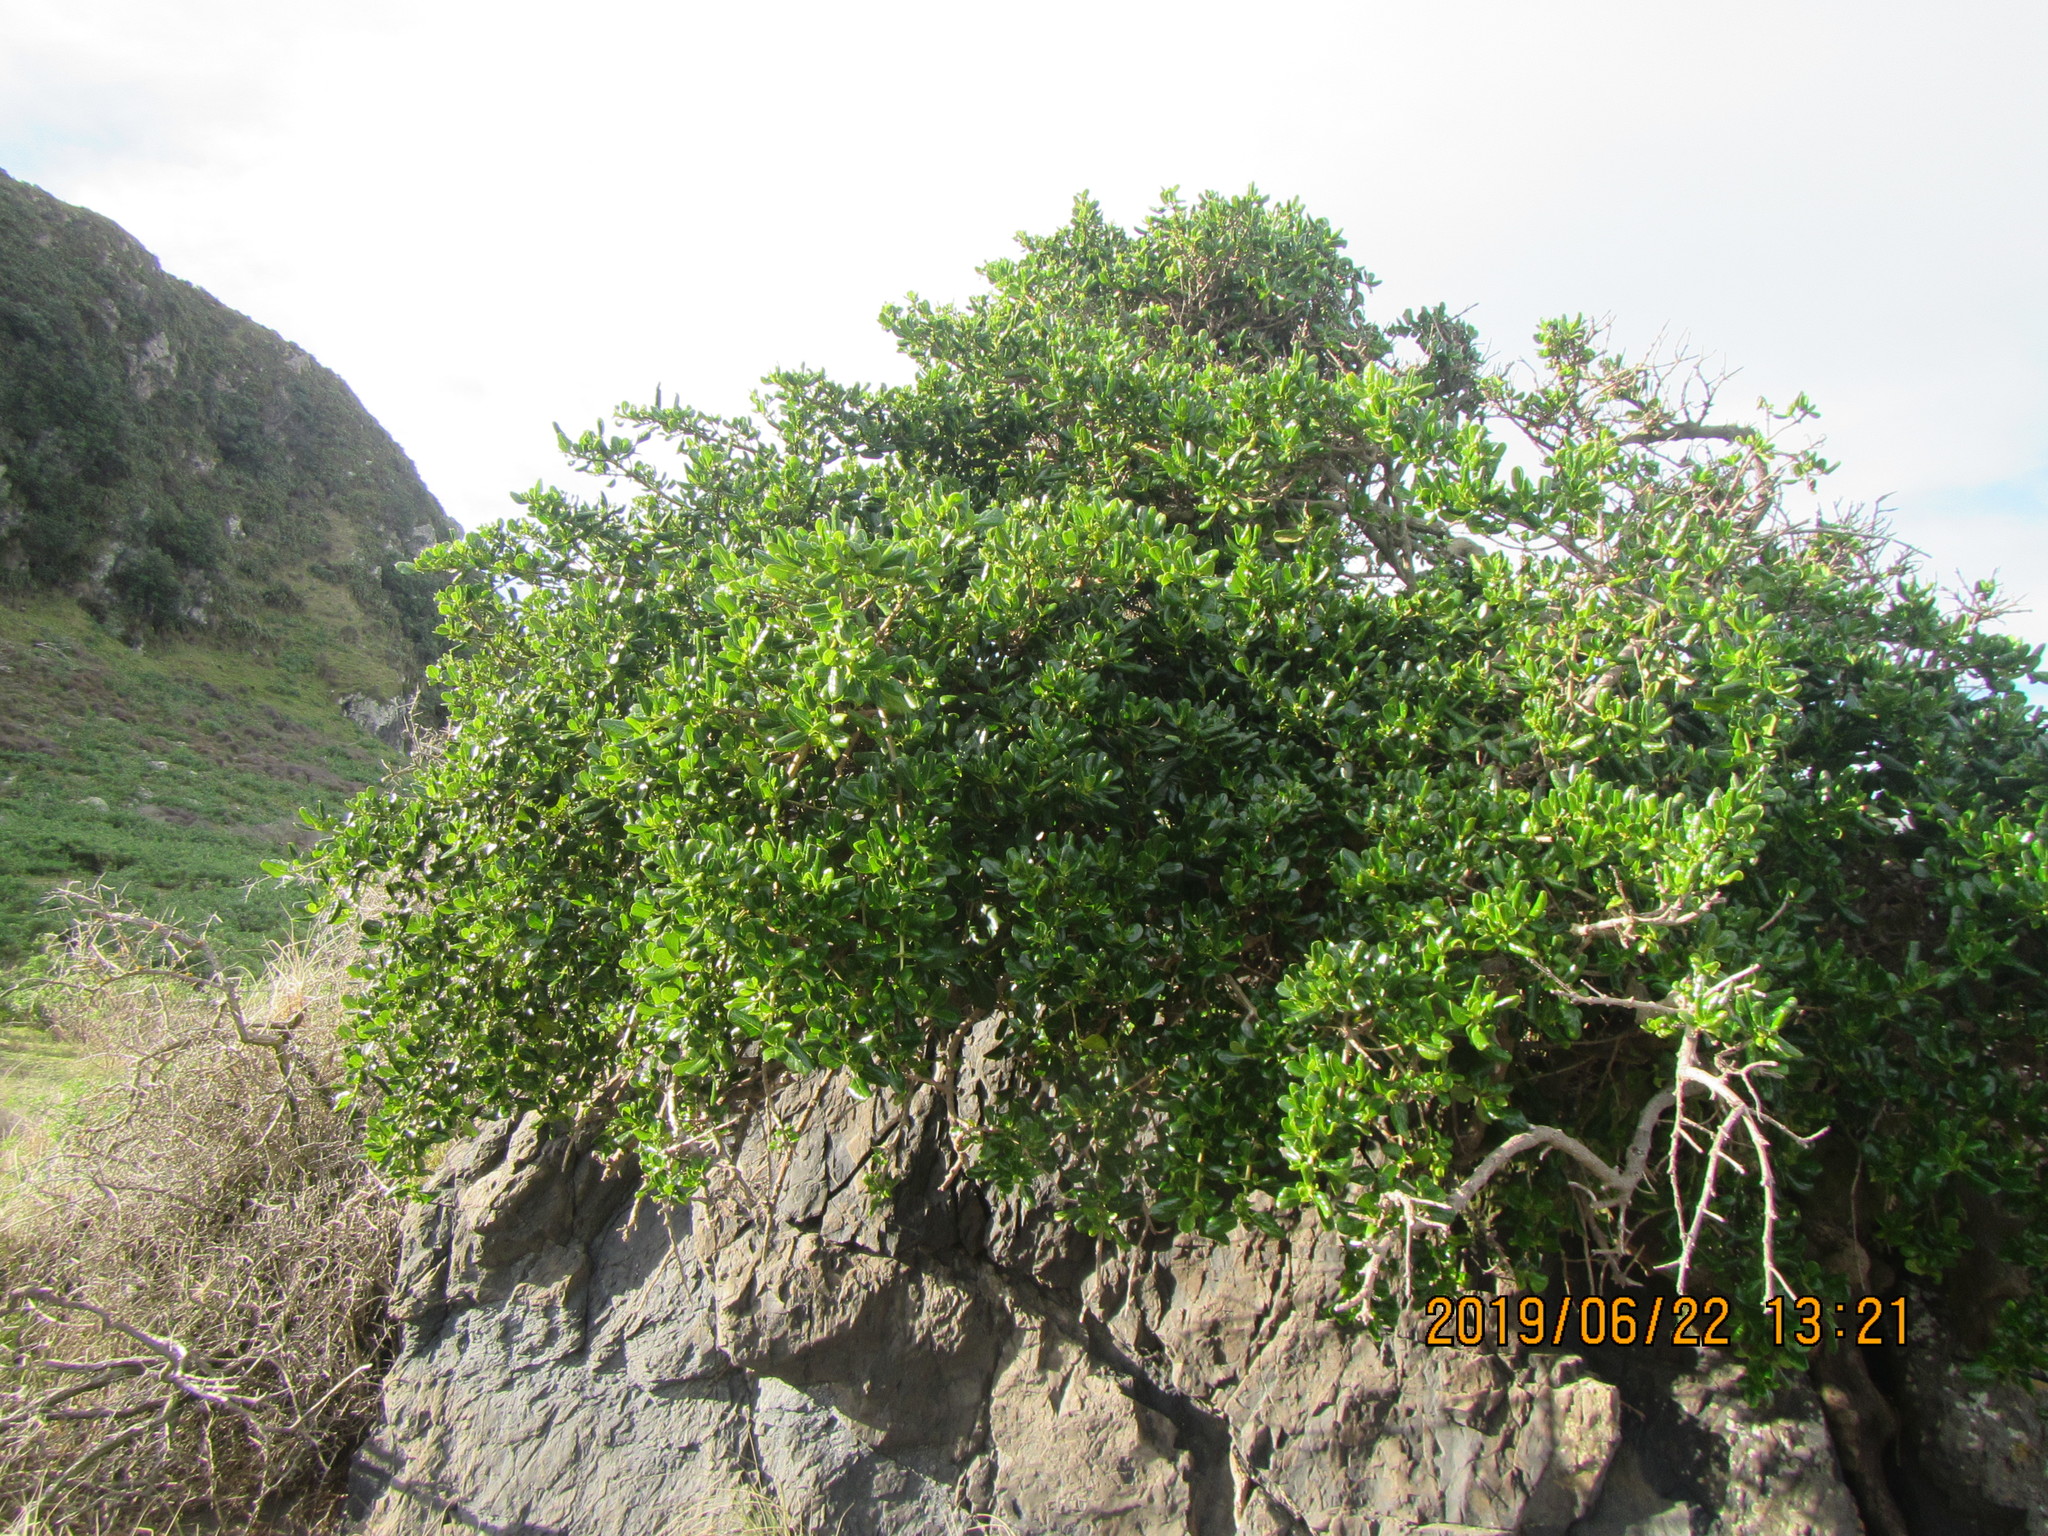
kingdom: Plantae
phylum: Tracheophyta
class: Magnoliopsida
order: Gentianales
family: Rubiaceae
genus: Coprosma
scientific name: Coprosma repens
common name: Tree bedstraw
